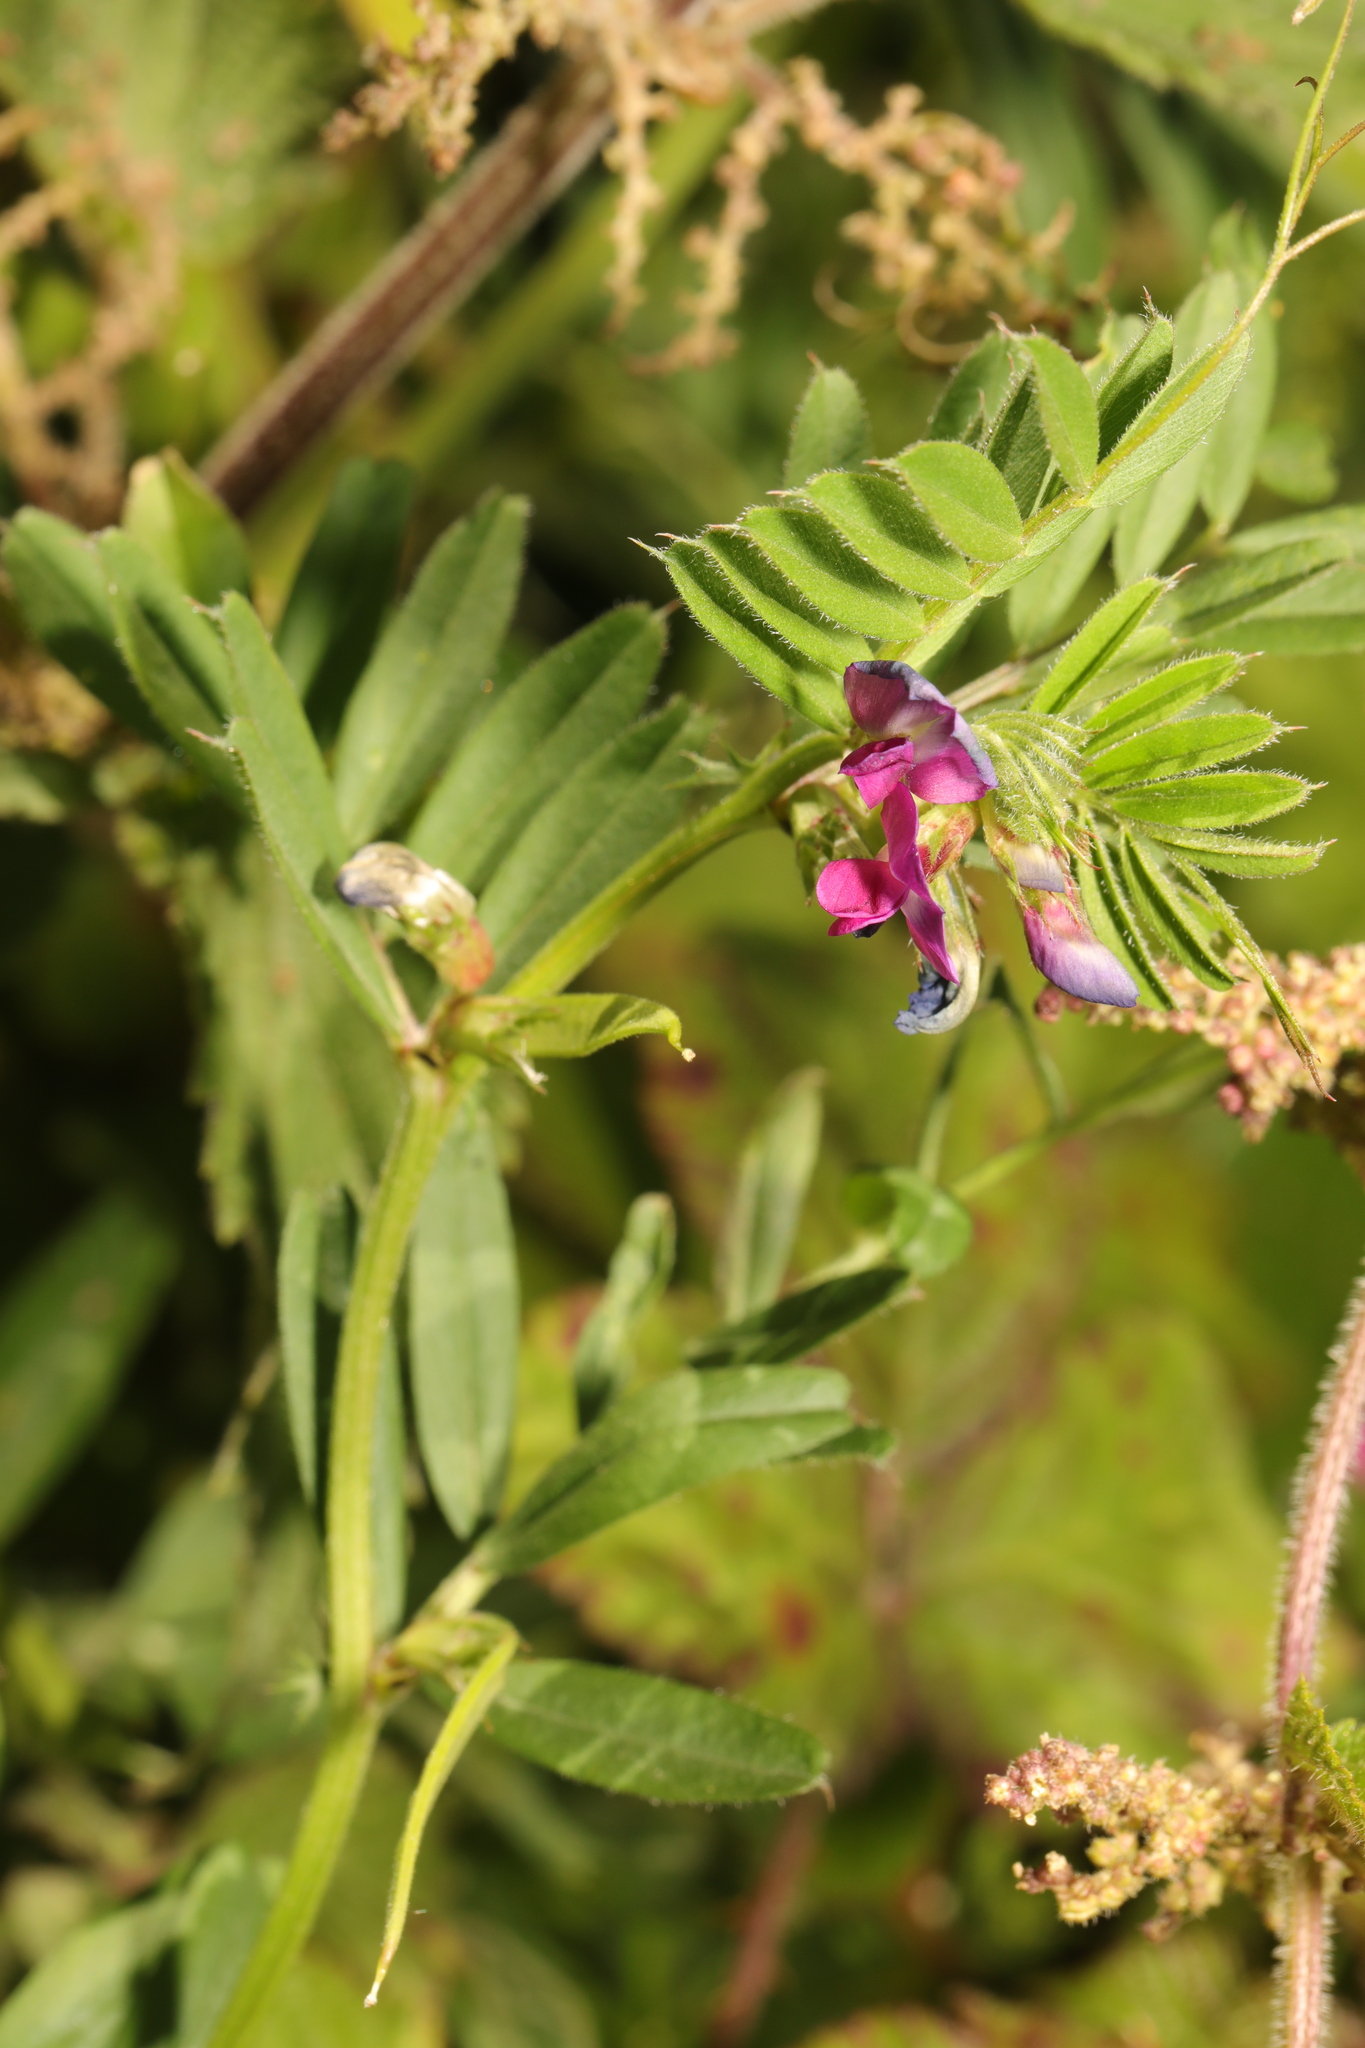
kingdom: Plantae
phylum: Tracheophyta
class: Magnoliopsida
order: Fabales
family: Fabaceae
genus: Vicia
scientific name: Vicia sativa
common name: Garden vetch
